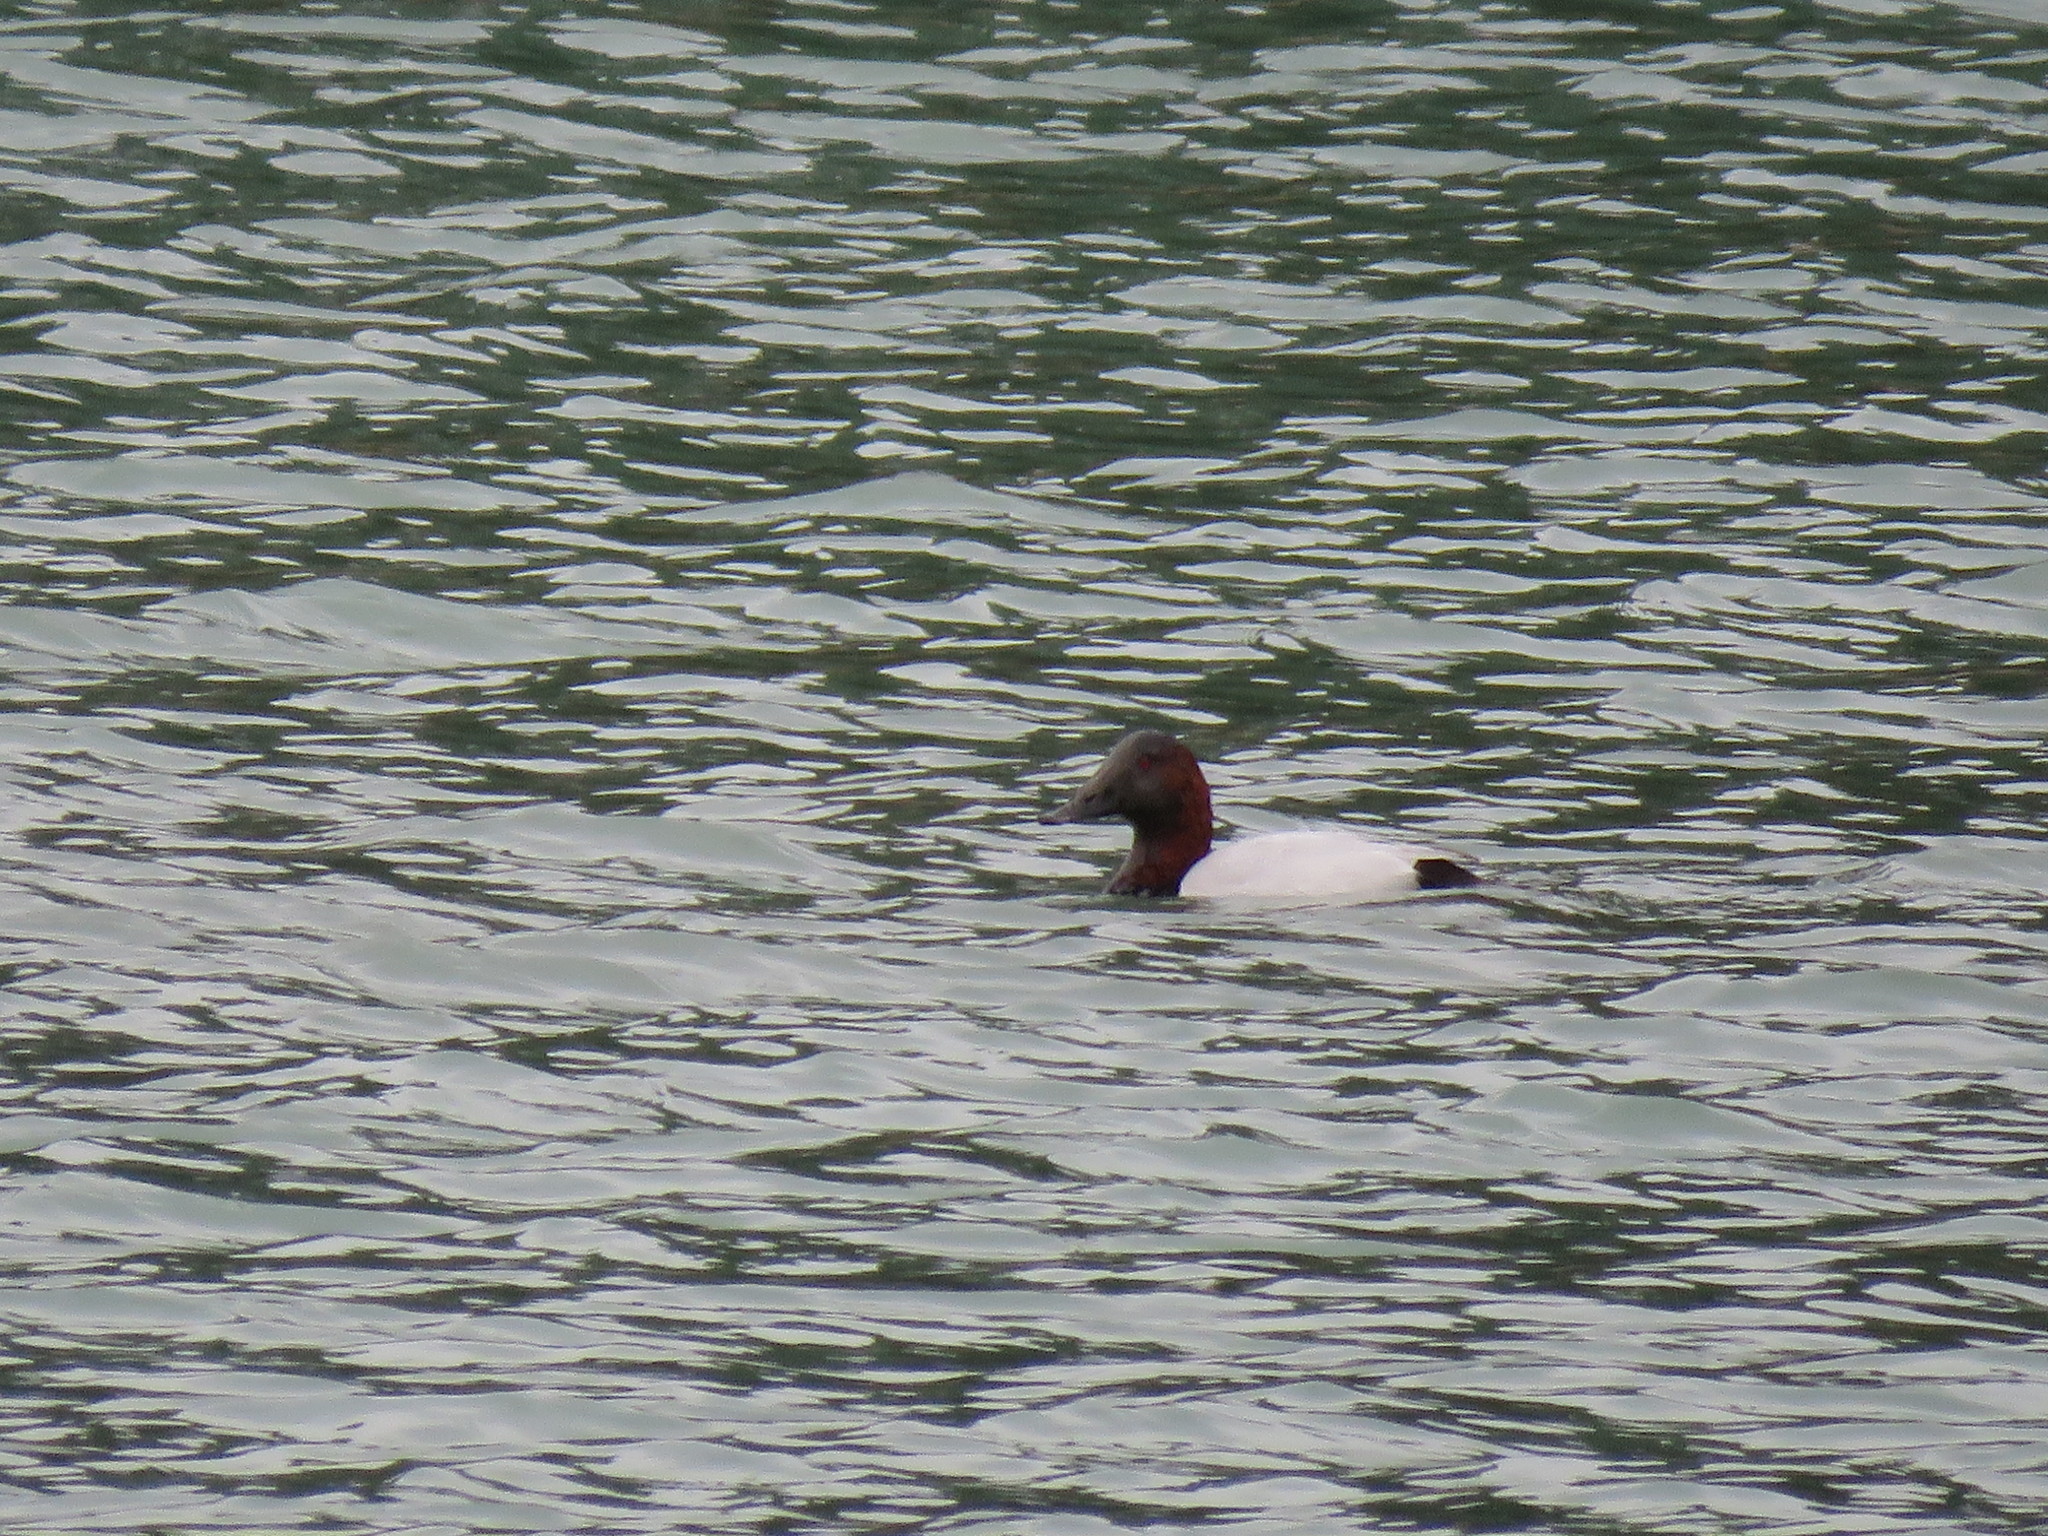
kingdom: Animalia
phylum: Chordata
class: Aves
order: Anseriformes
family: Anatidae
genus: Aythya
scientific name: Aythya valisineria
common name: Canvasback
